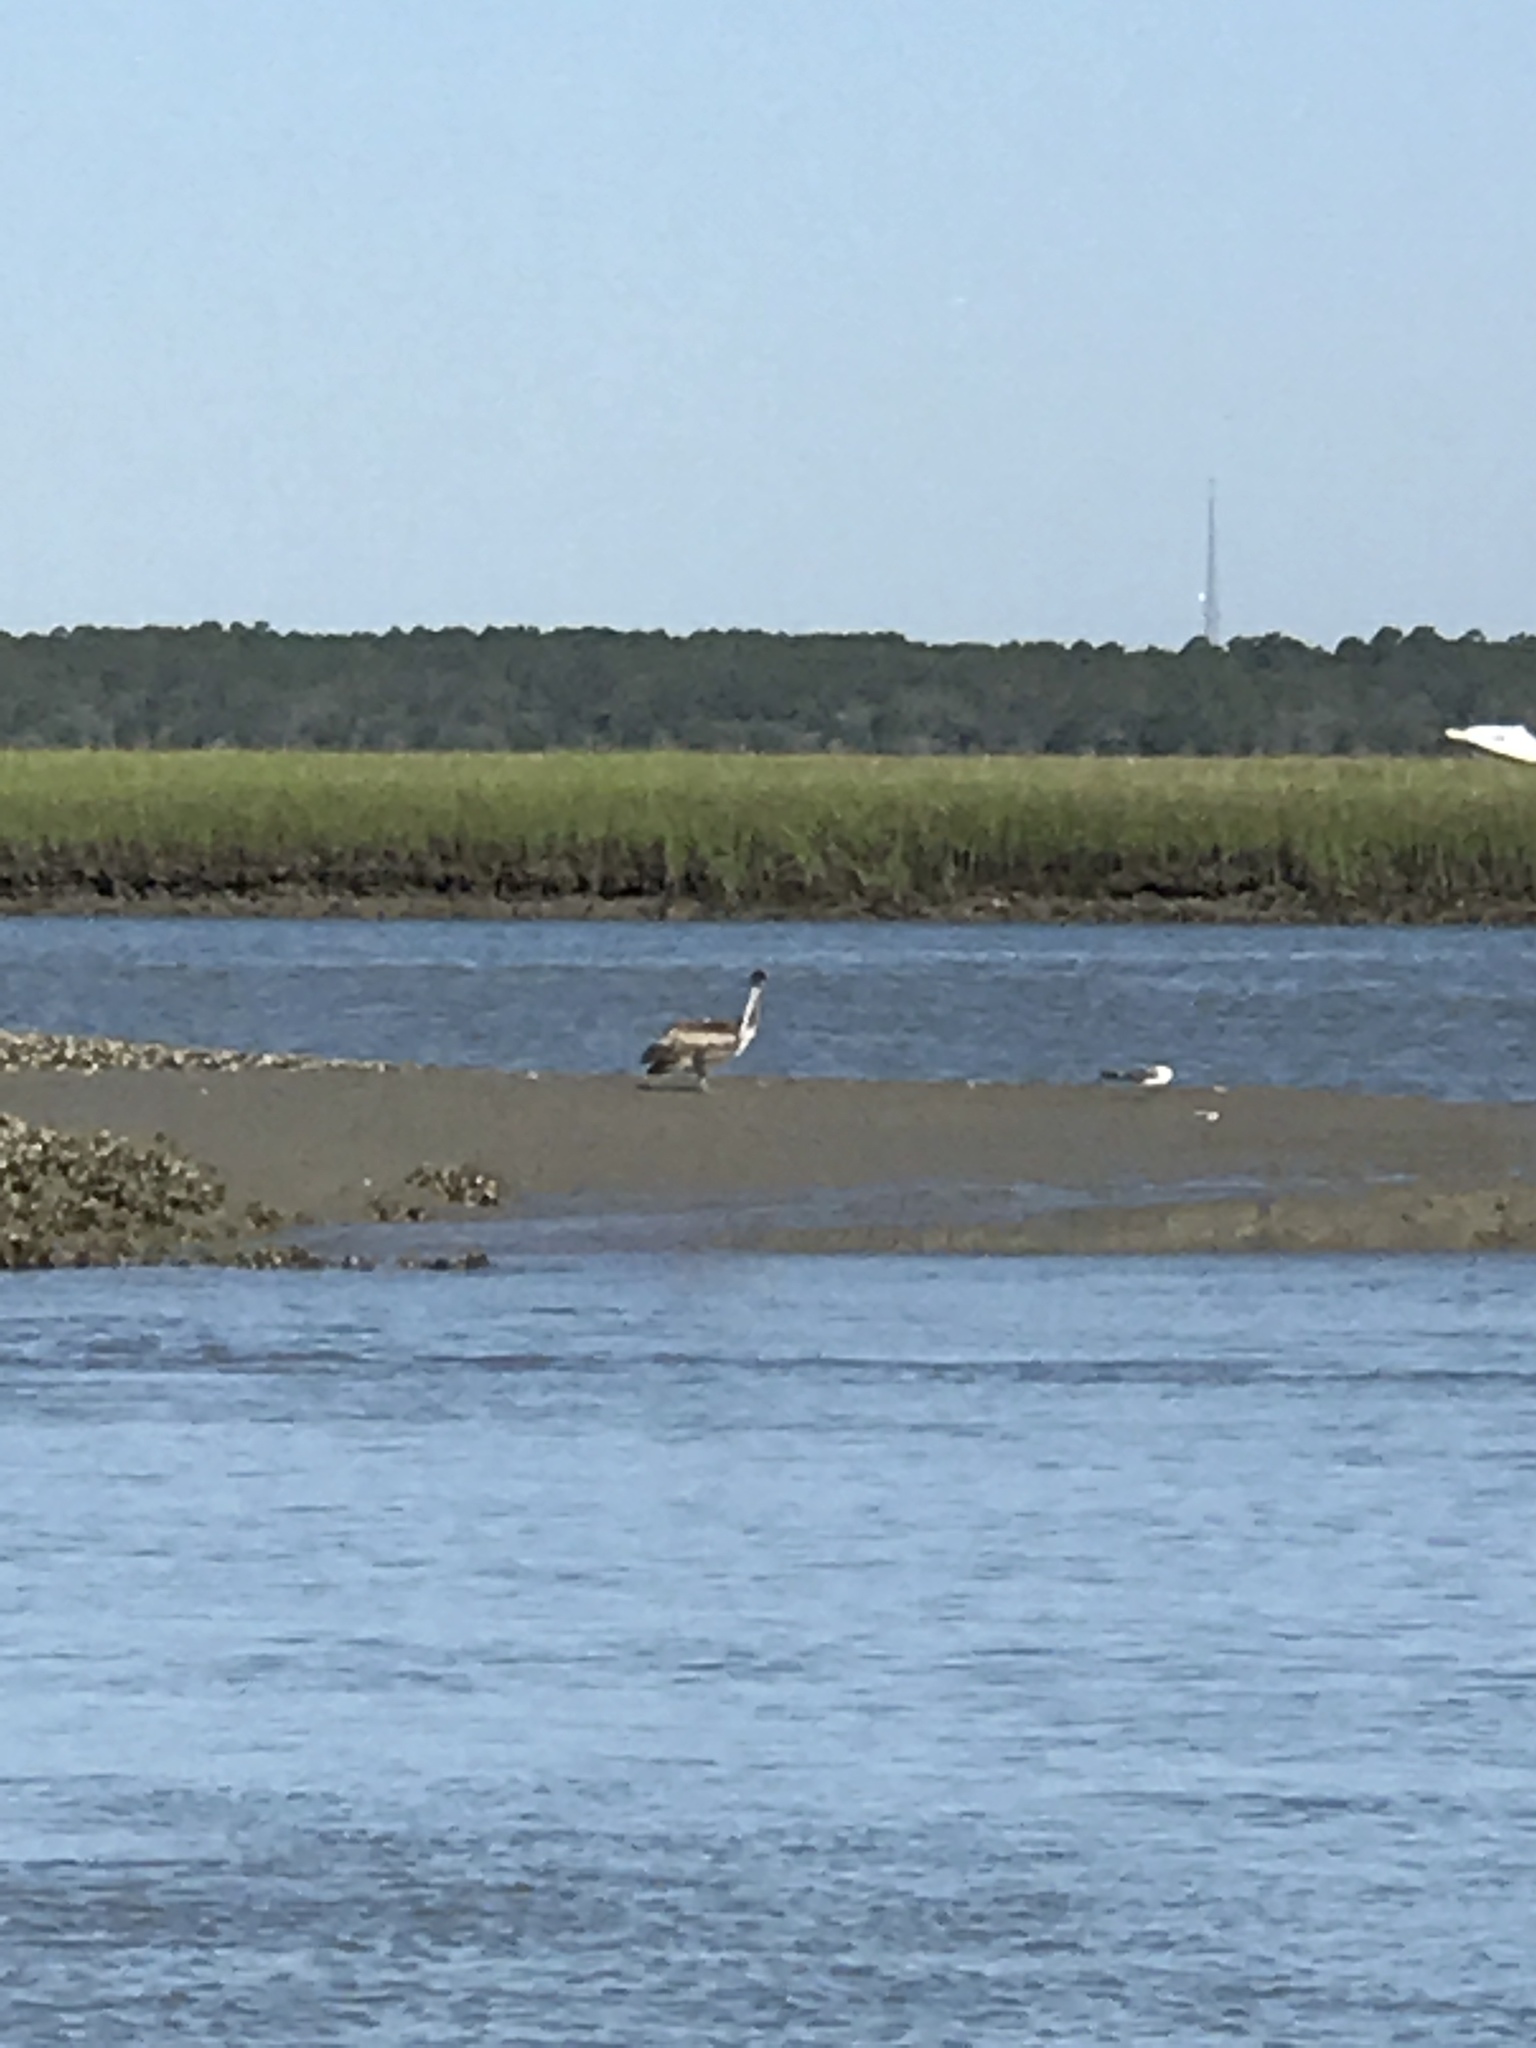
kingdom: Animalia
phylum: Chordata
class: Aves
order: Pelecaniformes
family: Pelecanidae
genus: Pelecanus
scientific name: Pelecanus occidentalis
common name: Brown pelican
